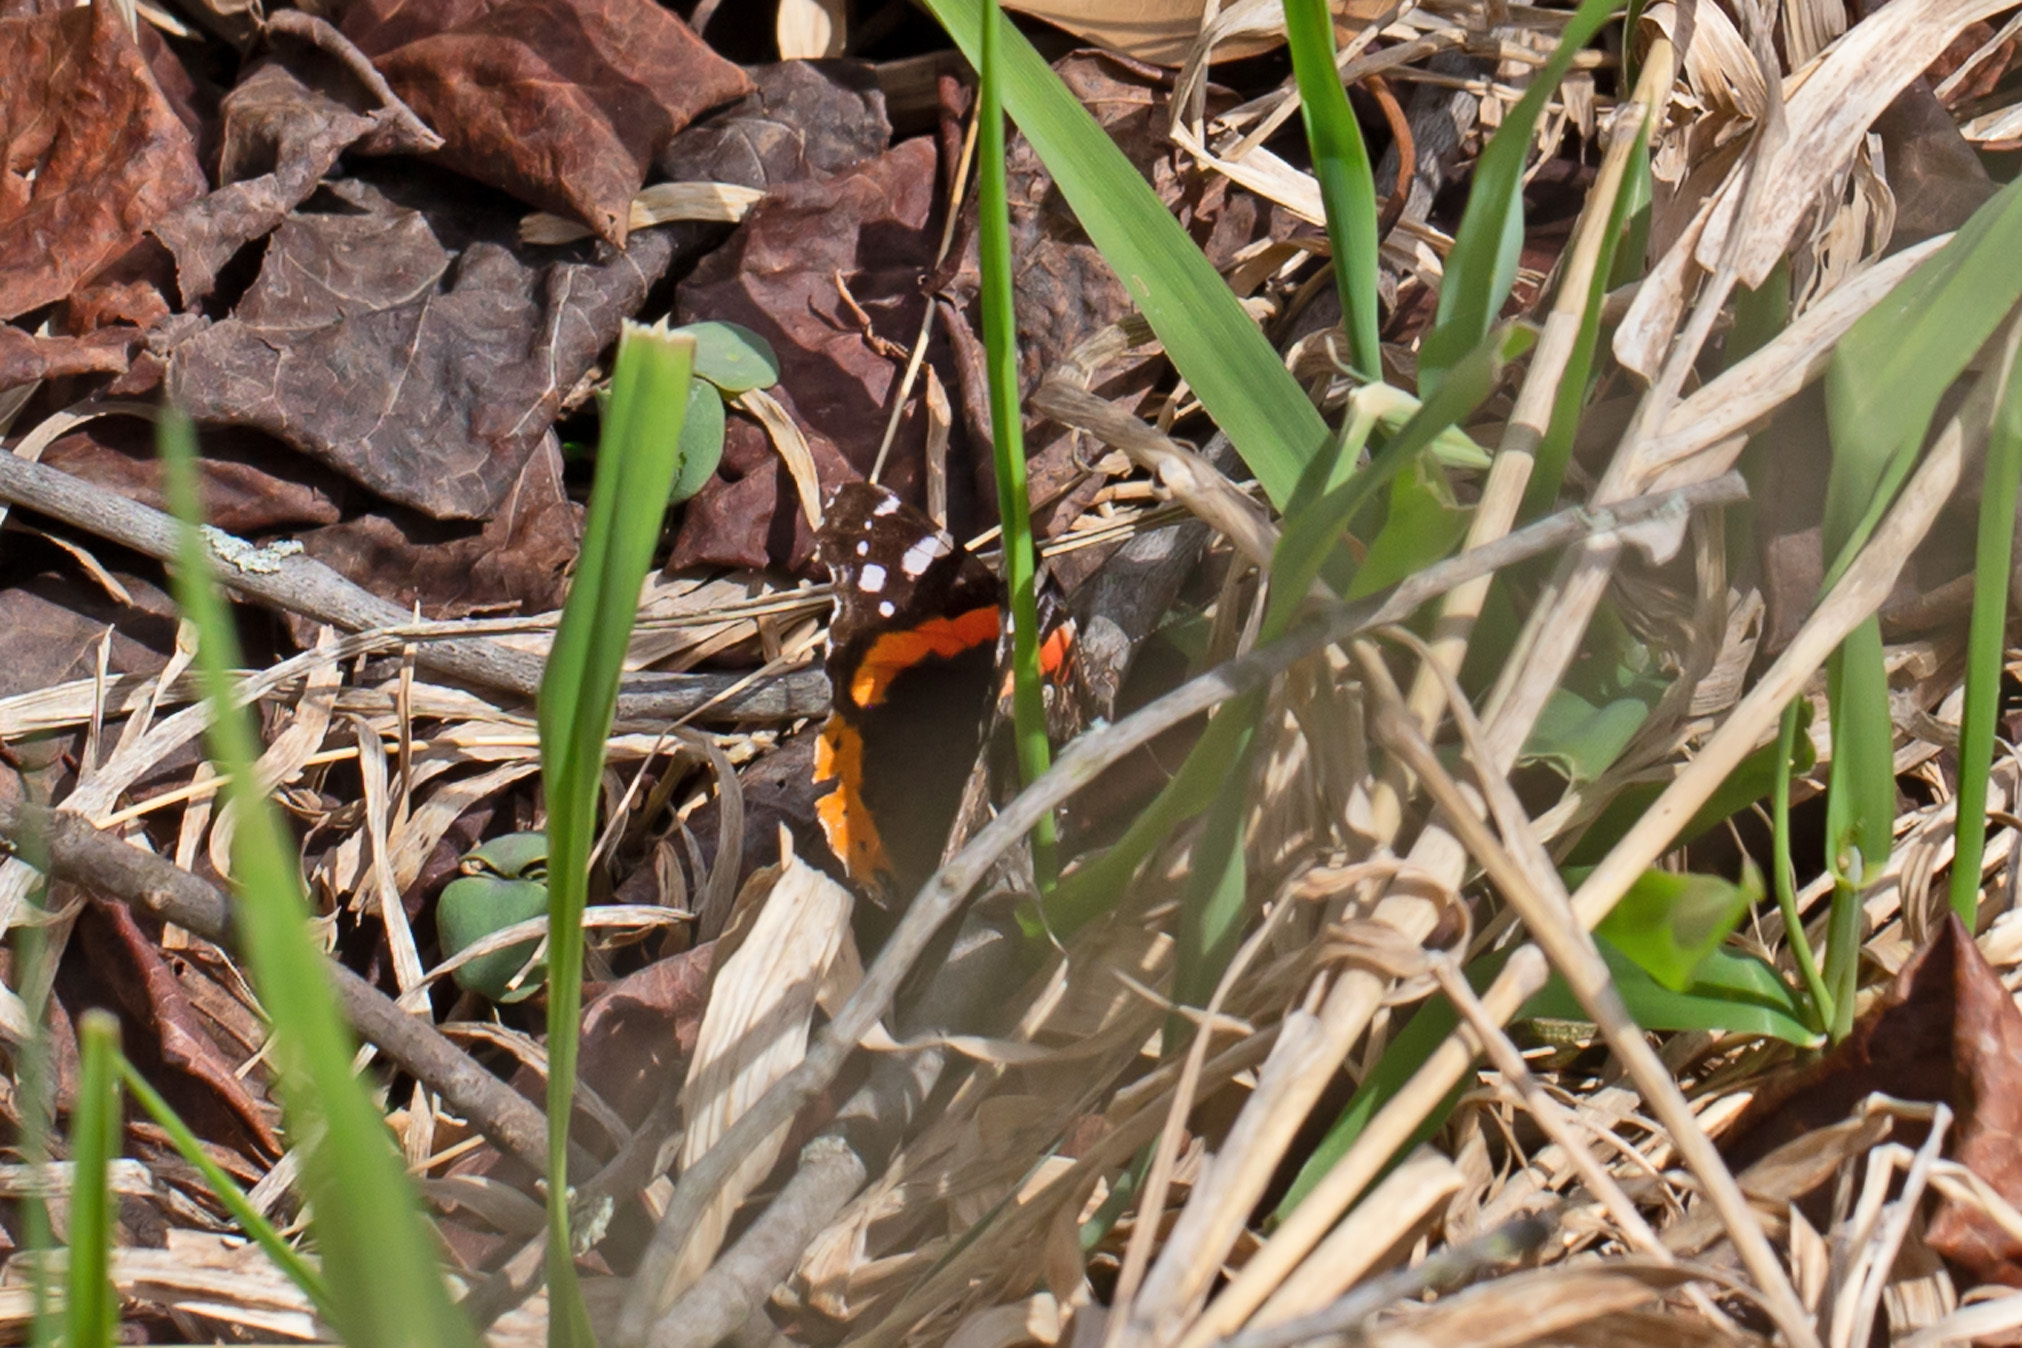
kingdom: Animalia
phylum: Arthropoda
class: Insecta
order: Lepidoptera
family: Nymphalidae
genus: Vanessa
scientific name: Vanessa atalanta
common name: Red admiral
